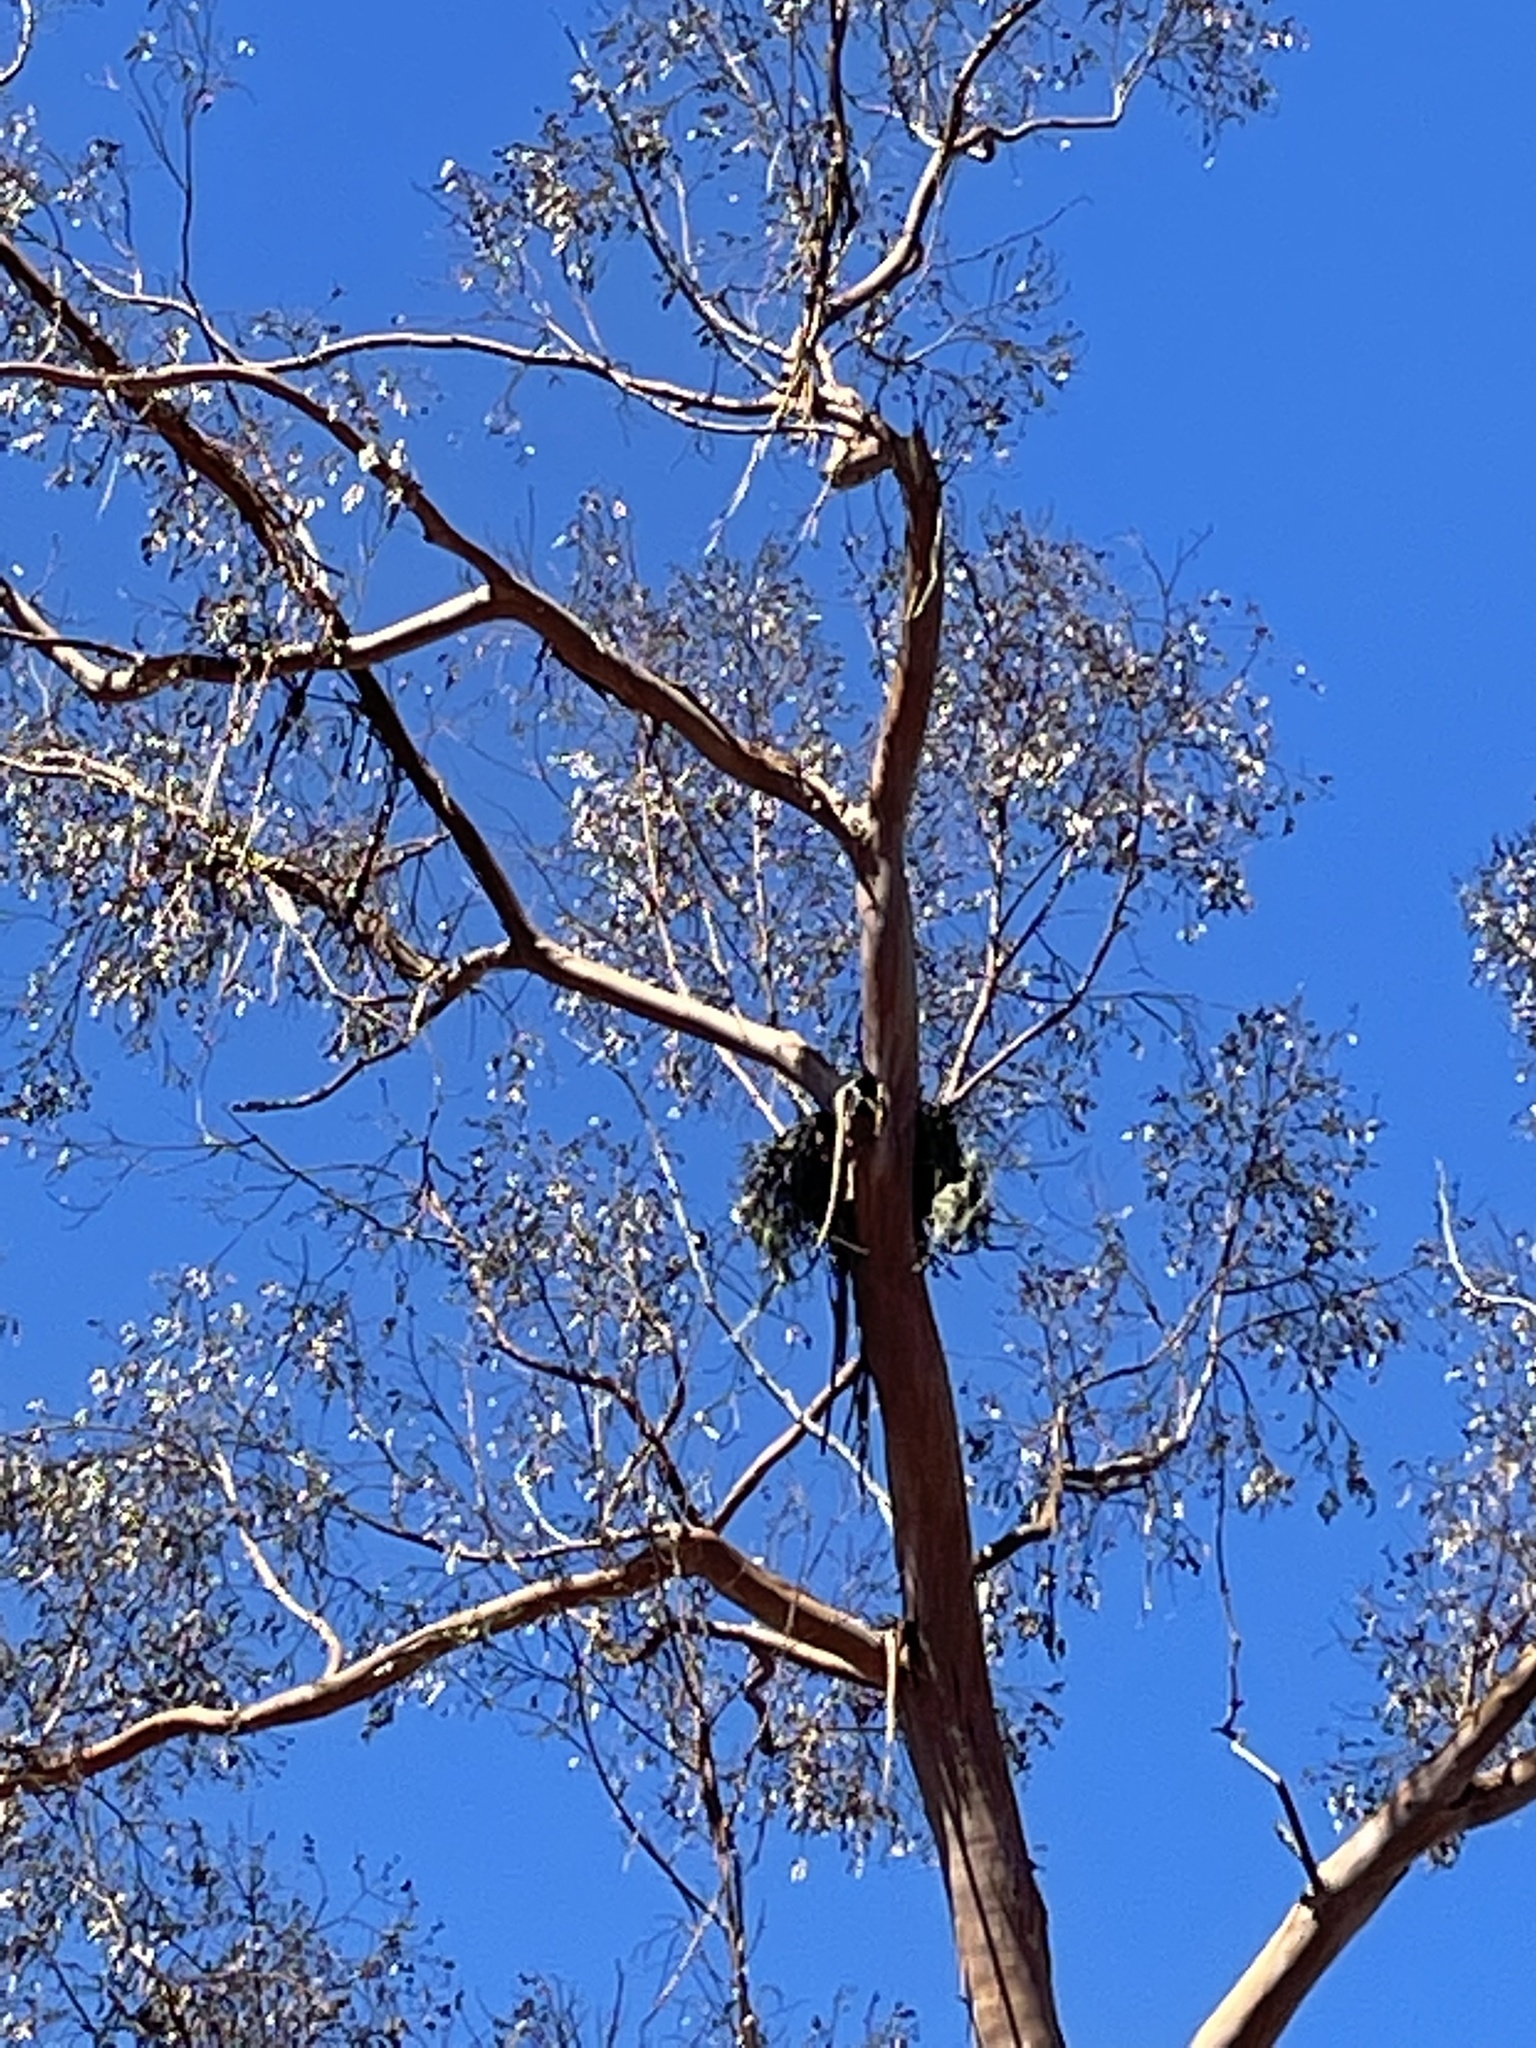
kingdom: Animalia
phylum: Chordata
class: Aves
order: Accipitriformes
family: Accipitridae
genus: Buteo
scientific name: Buteo jamaicensis
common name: Red-tailed hawk
